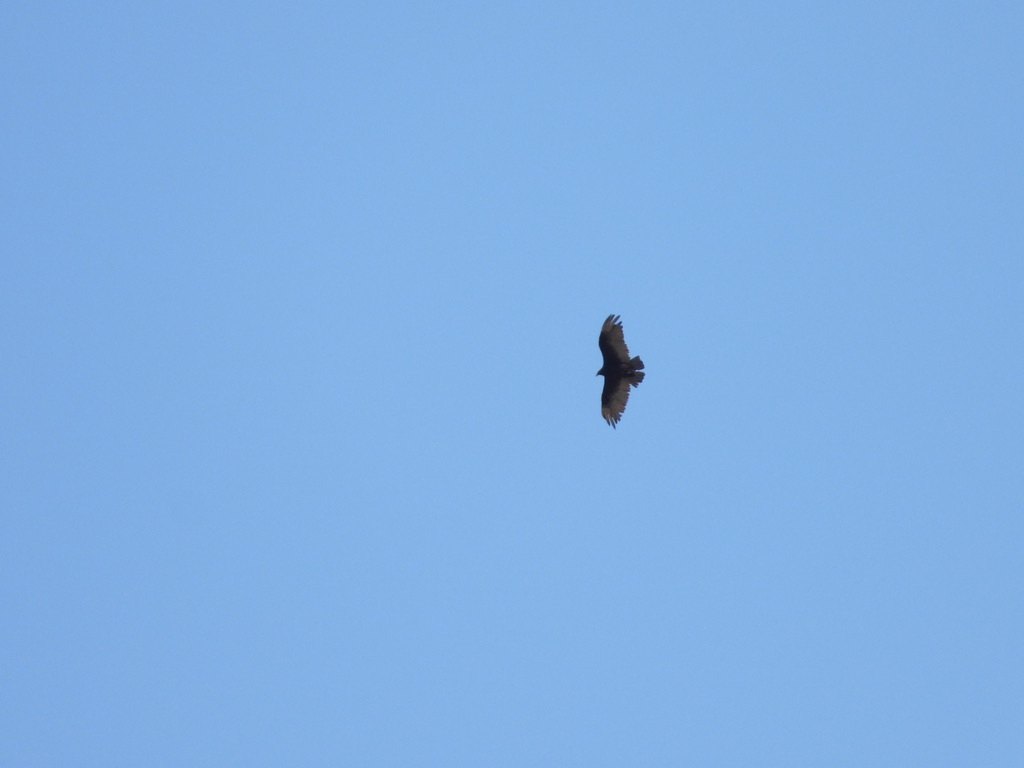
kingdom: Animalia
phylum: Chordata
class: Aves
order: Accipitriformes
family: Cathartidae
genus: Cathartes
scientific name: Cathartes aura
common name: Turkey vulture
